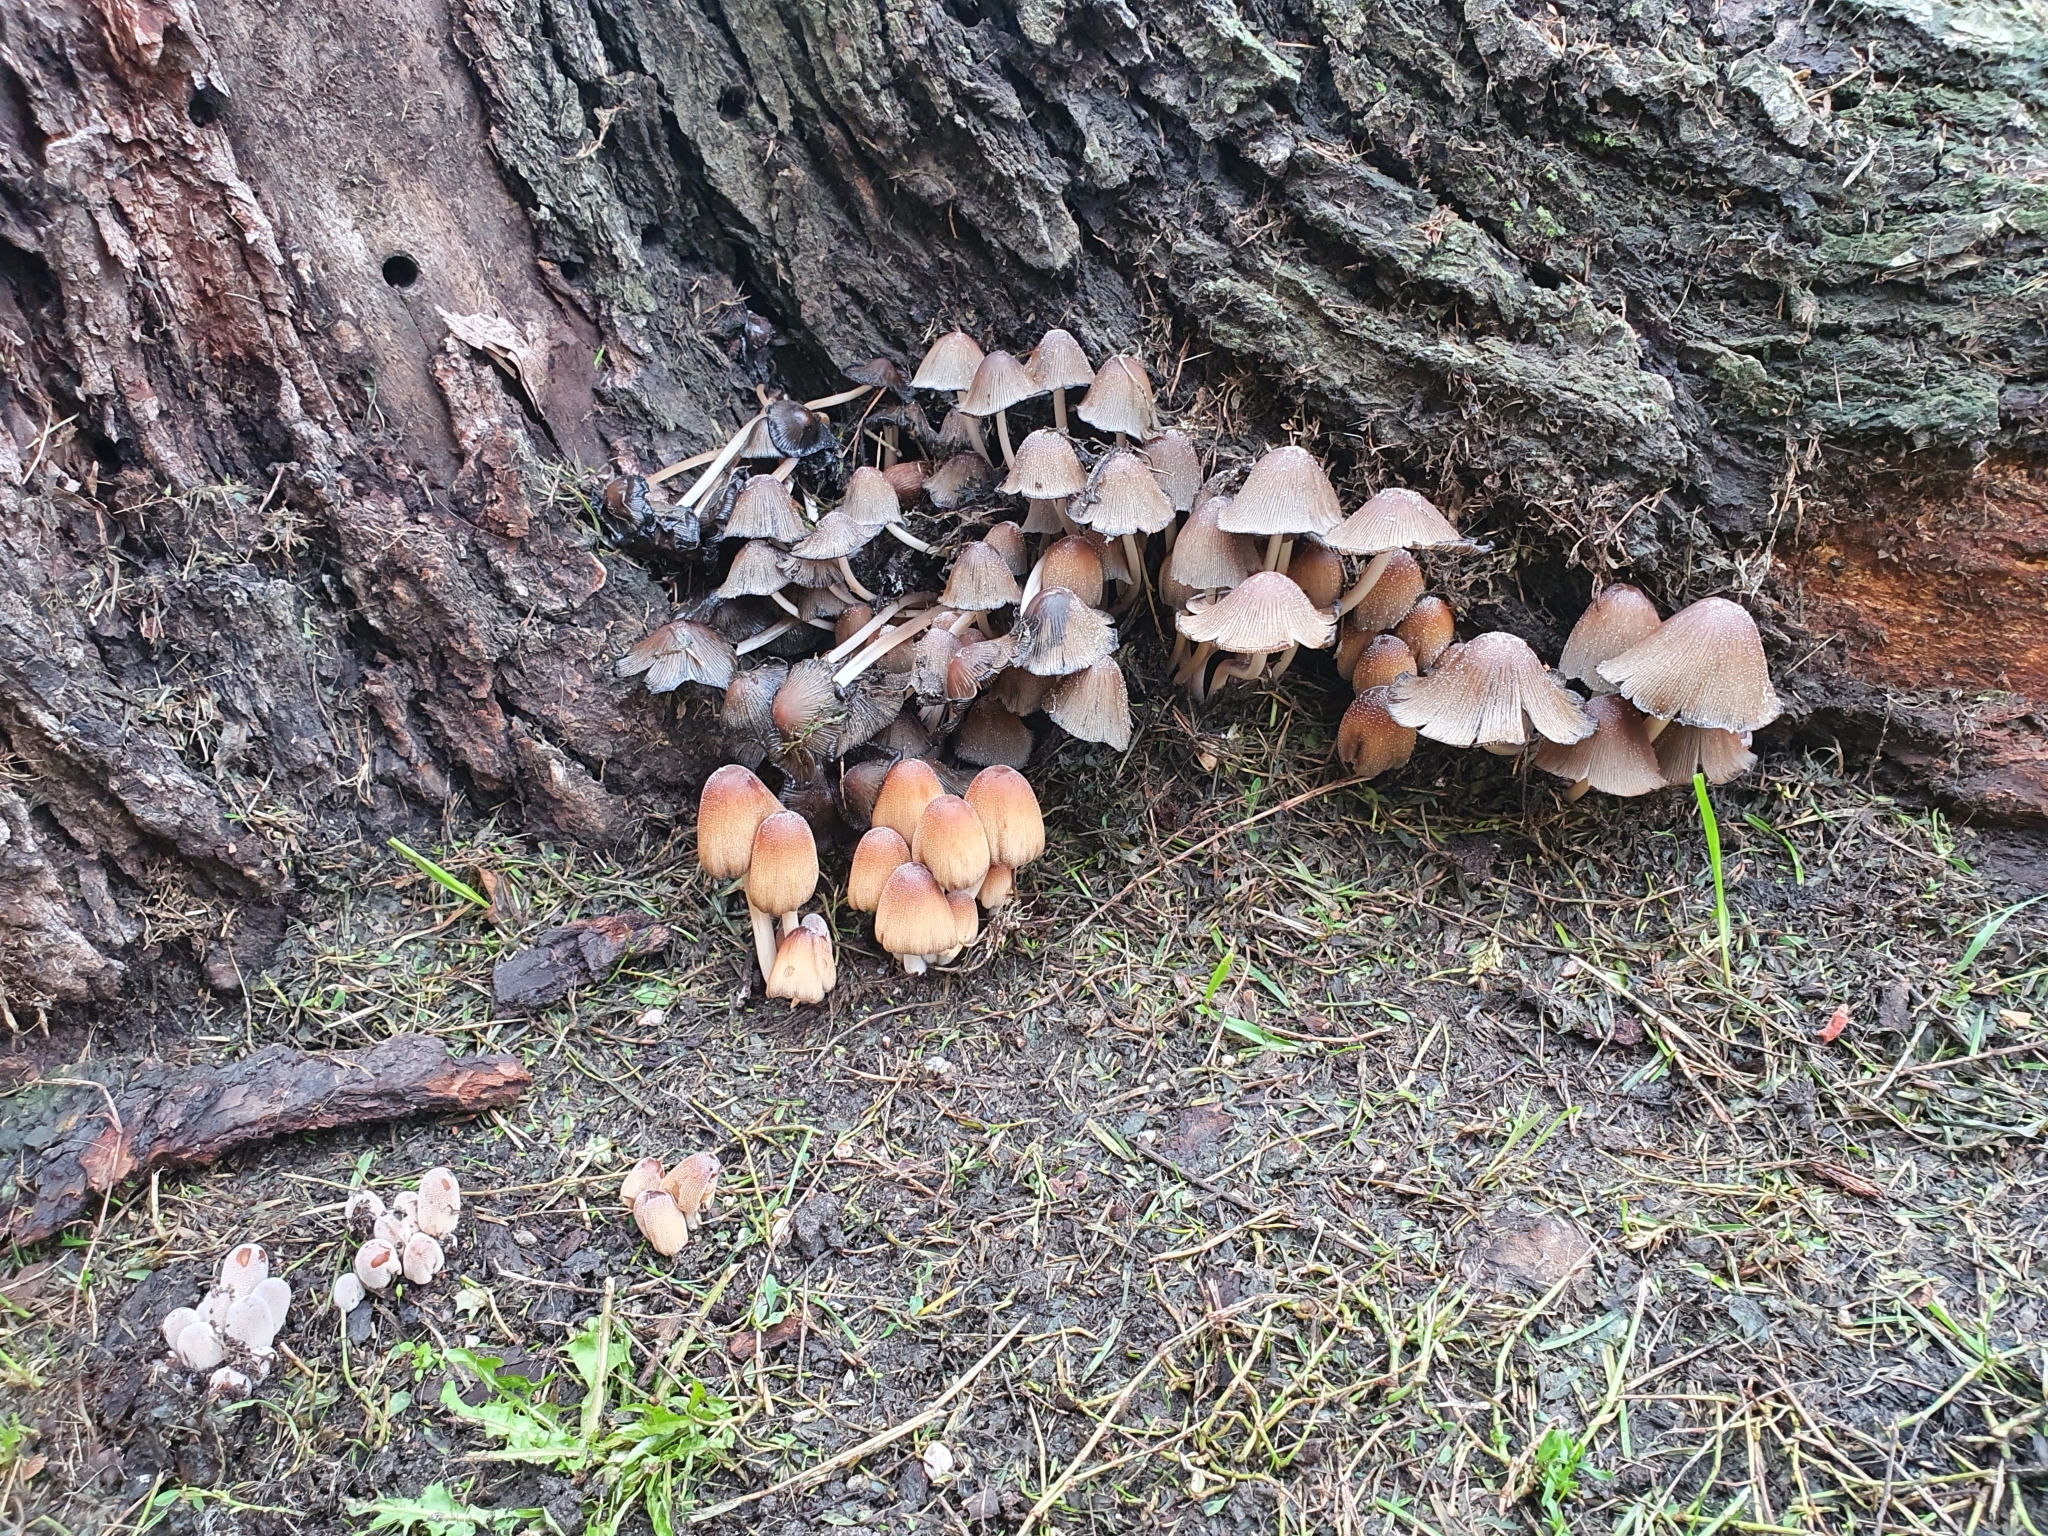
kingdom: Fungi
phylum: Basidiomycota
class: Agaricomycetes
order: Agaricales
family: Psathyrellaceae
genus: Coprinellus
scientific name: Coprinellus micaceus
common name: Glistening ink-cap
